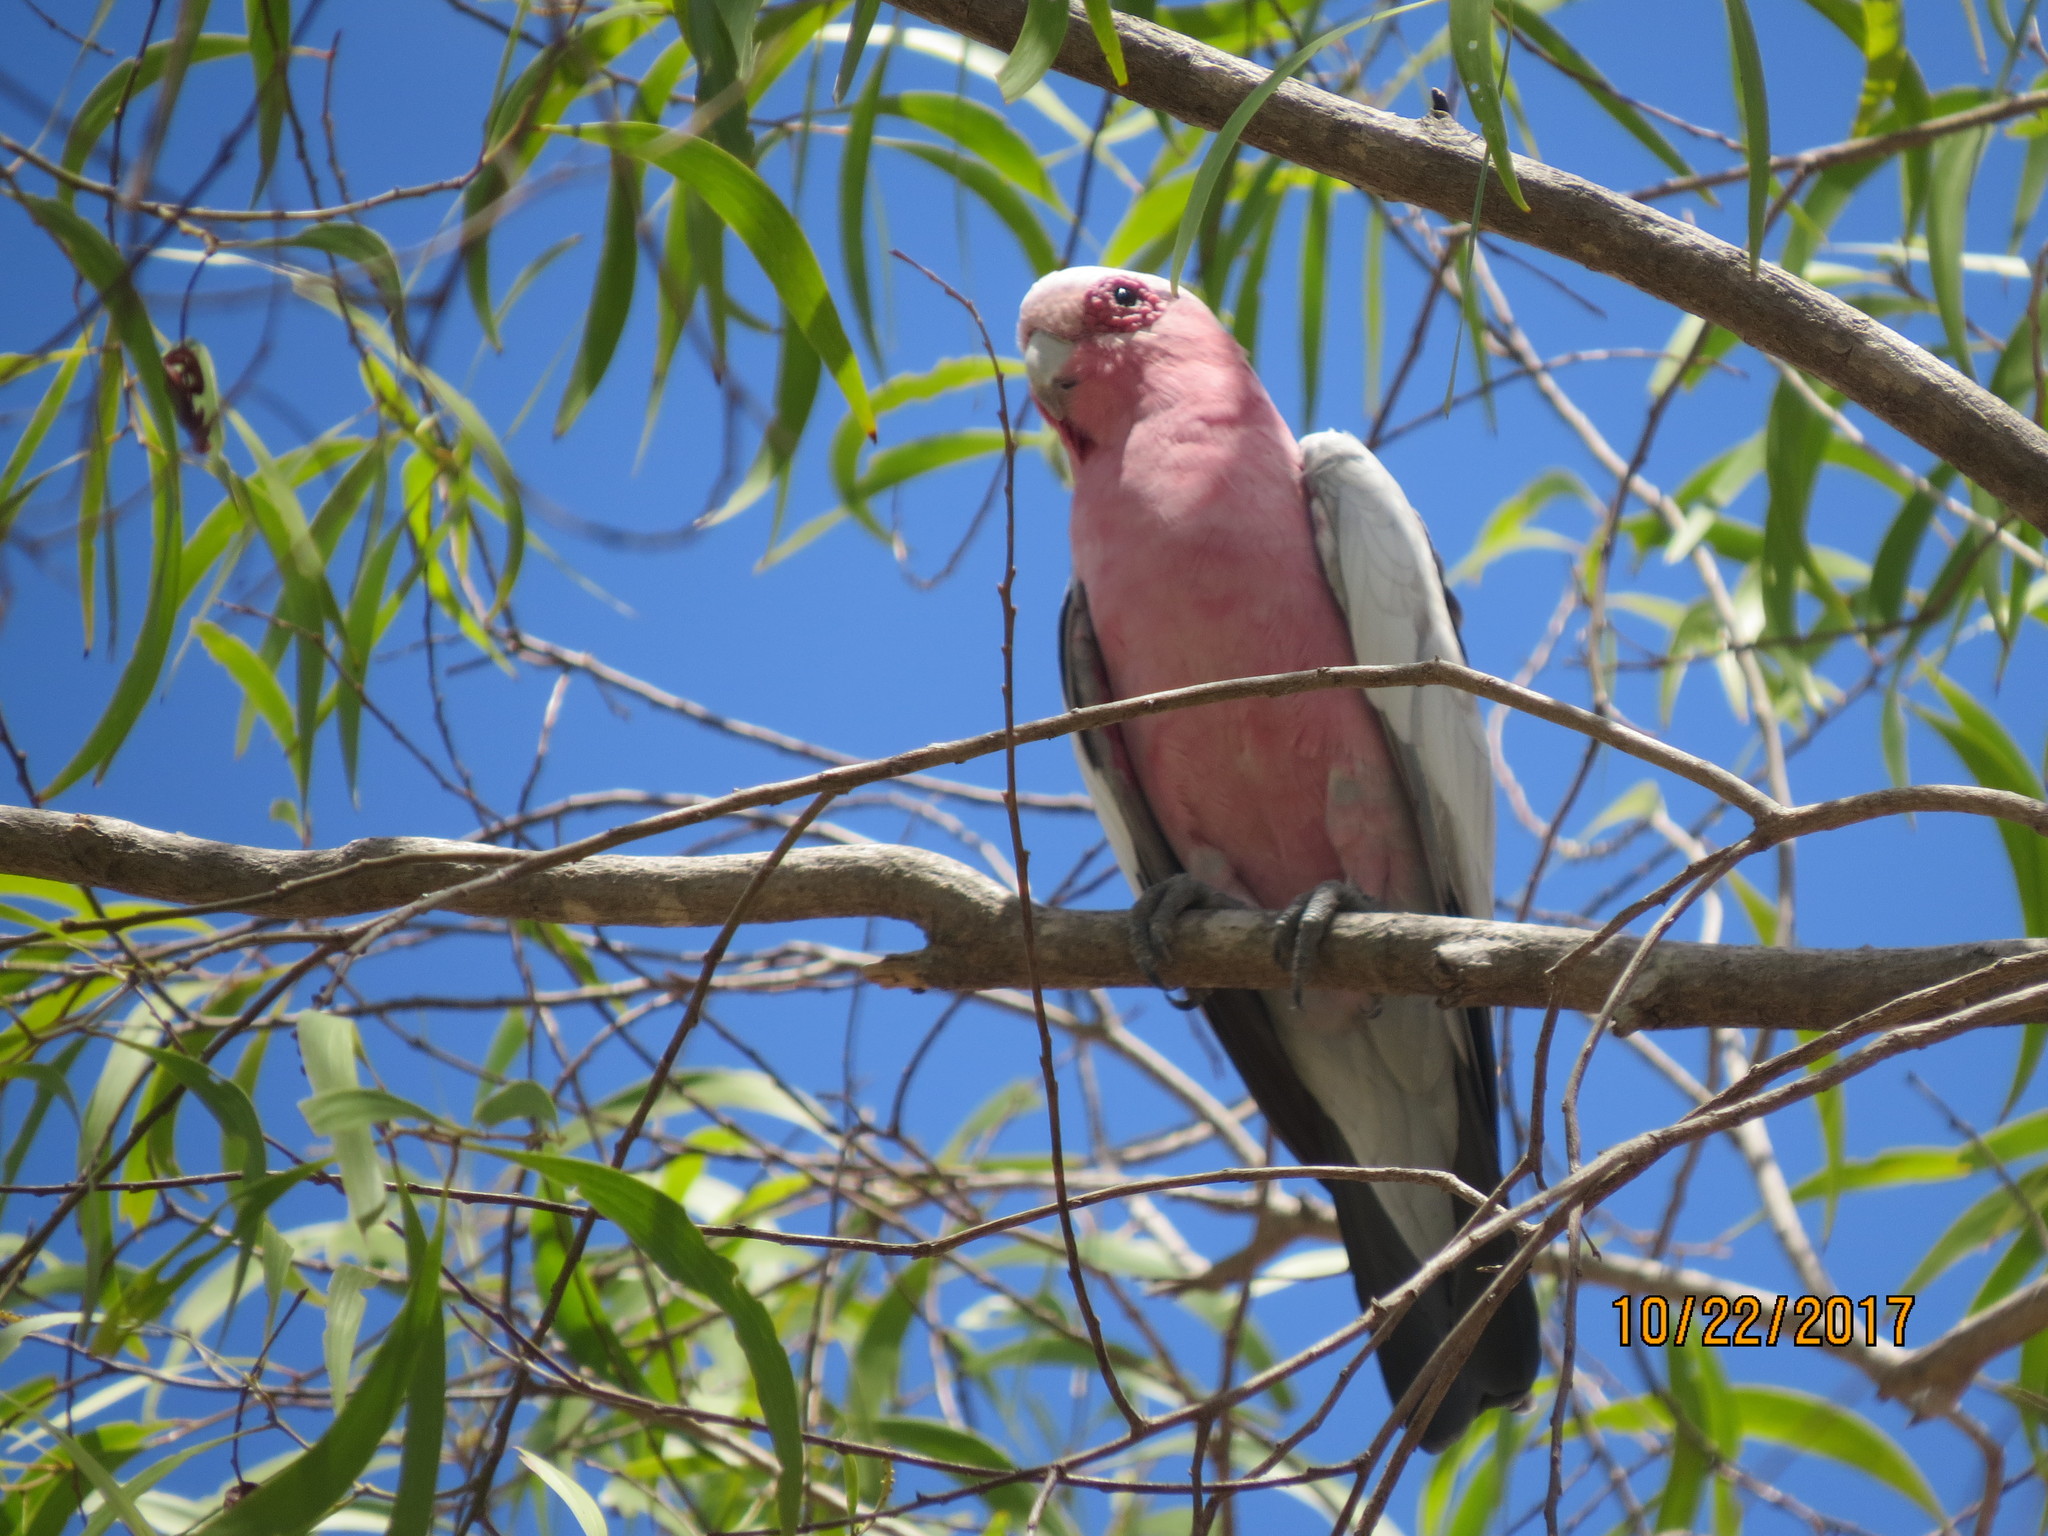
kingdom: Animalia
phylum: Chordata
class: Aves
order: Psittaciformes
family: Psittacidae
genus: Eolophus
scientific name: Eolophus roseicapilla
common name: Galah
